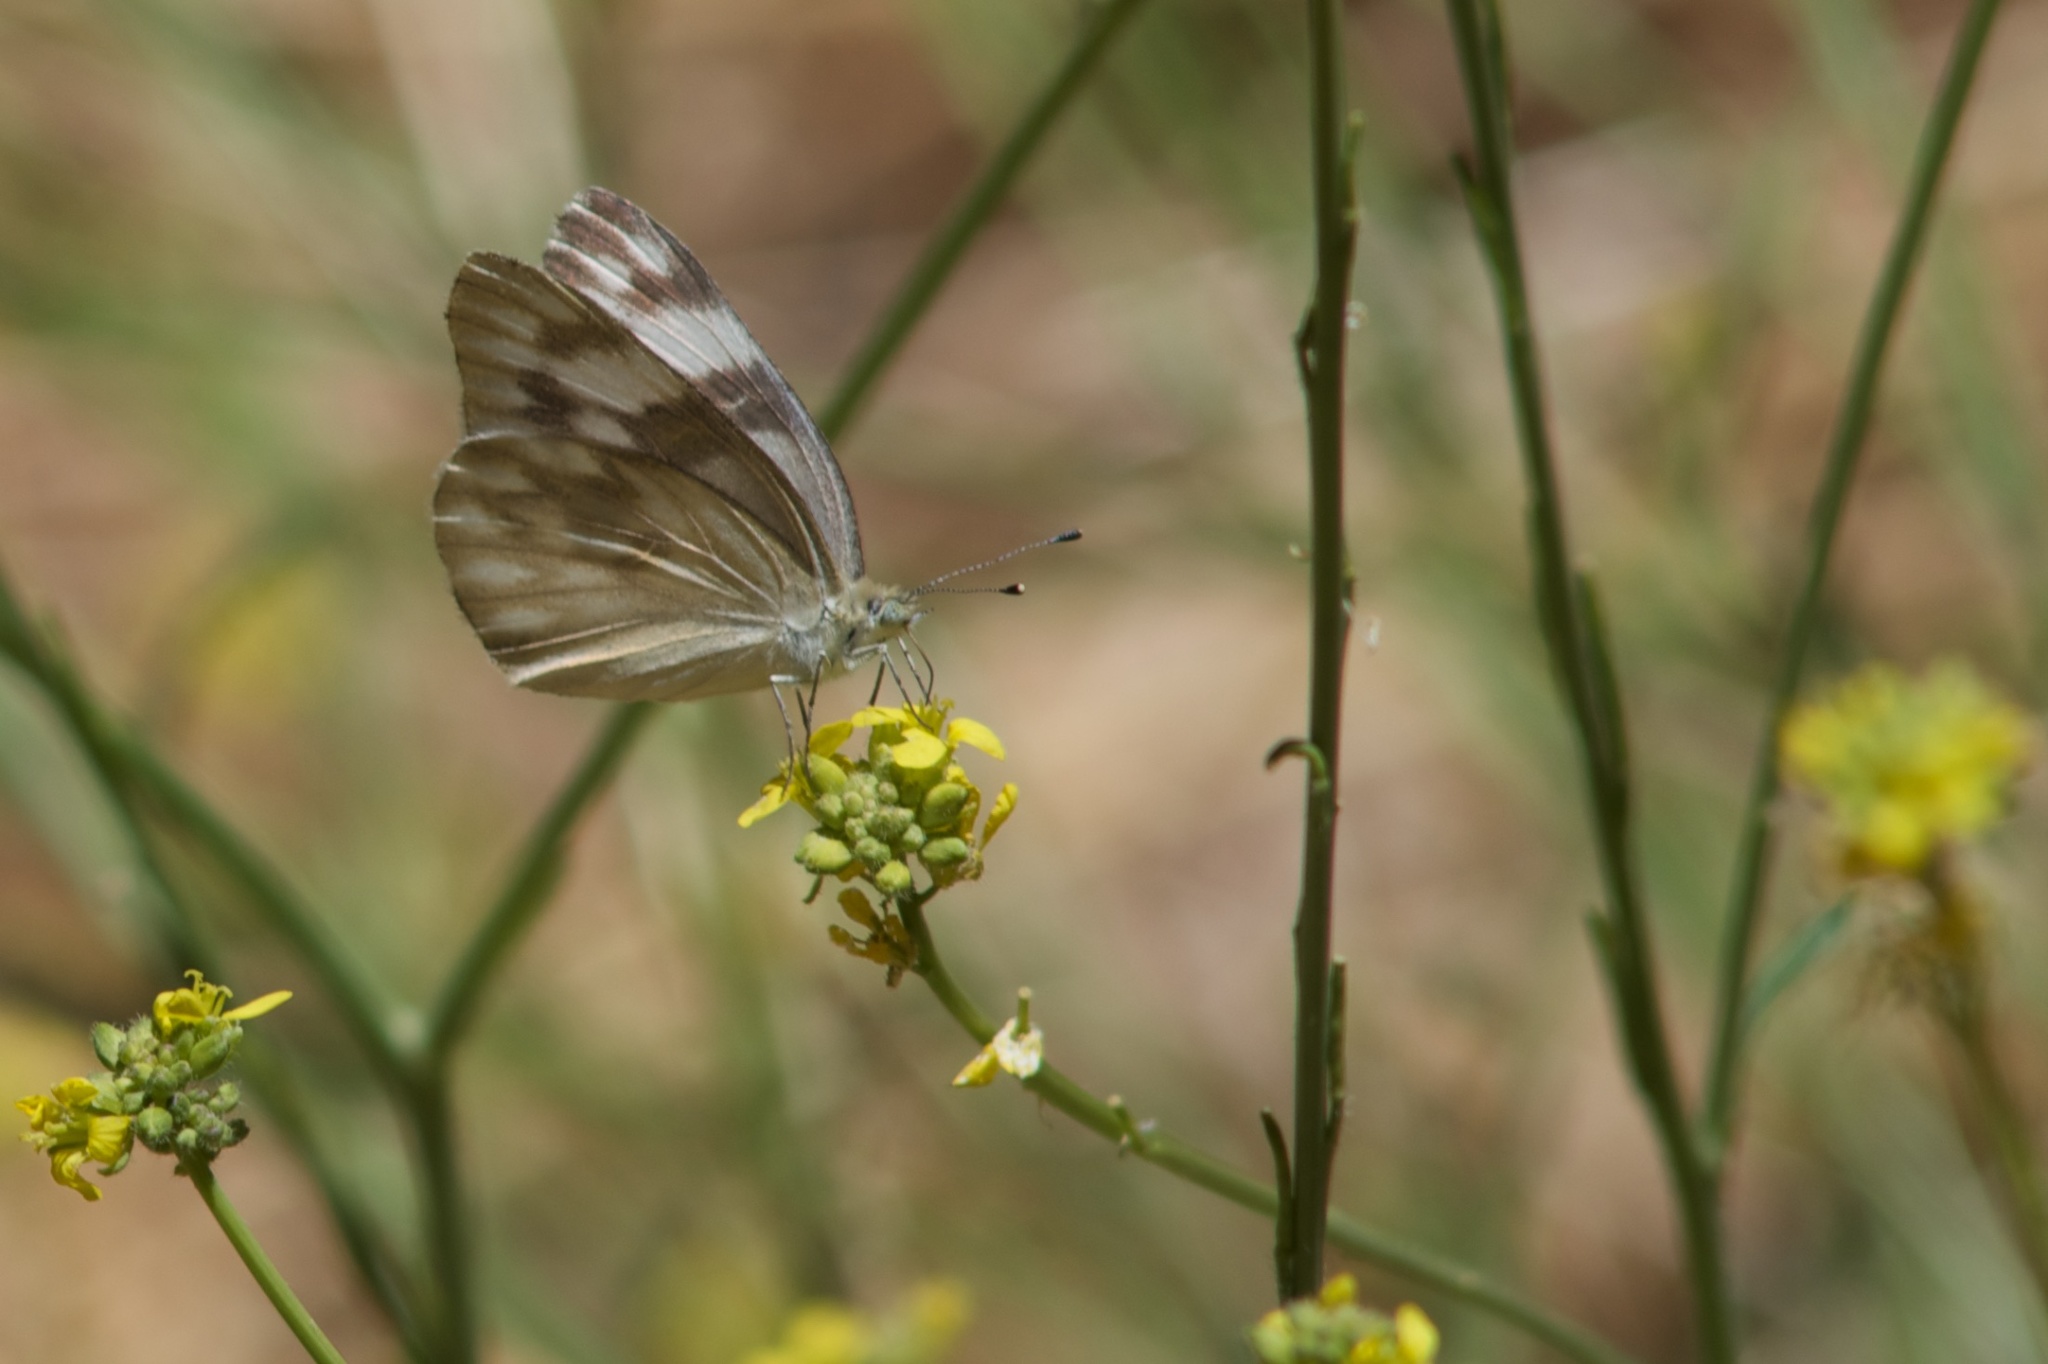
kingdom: Animalia
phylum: Arthropoda
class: Insecta
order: Lepidoptera
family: Pieridae
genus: Pontia
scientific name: Pontia protodice
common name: Checkered white
